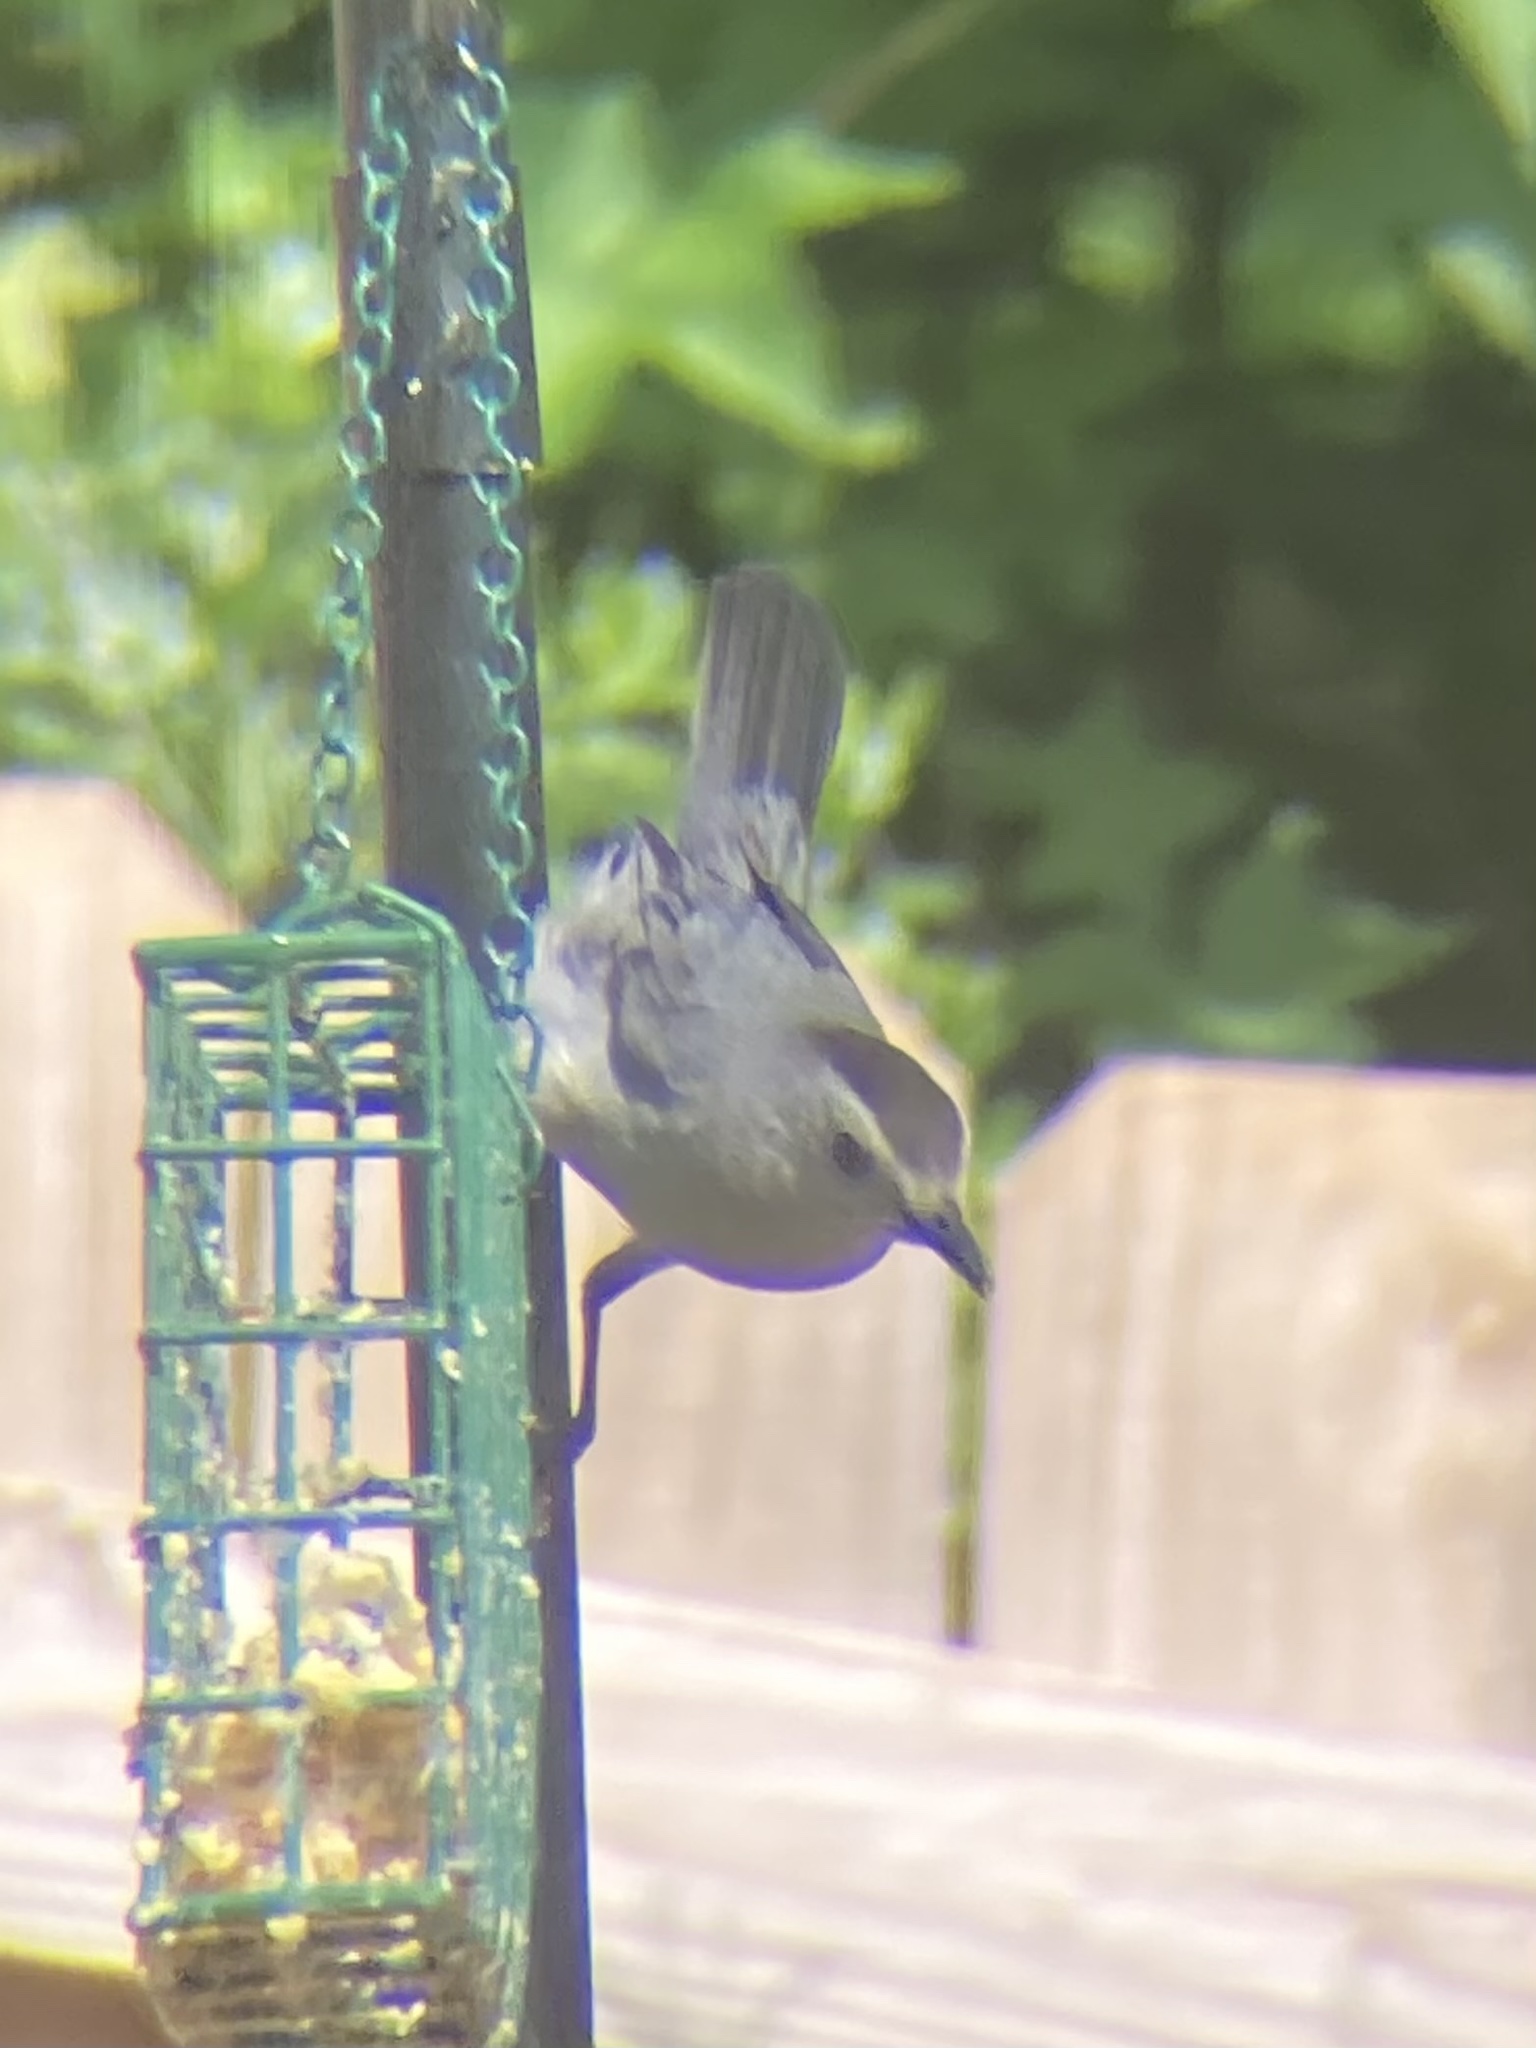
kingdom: Animalia
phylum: Chordata
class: Aves
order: Passeriformes
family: Mimidae
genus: Dumetella
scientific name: Dumetella carolinensis
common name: Gray catbird
